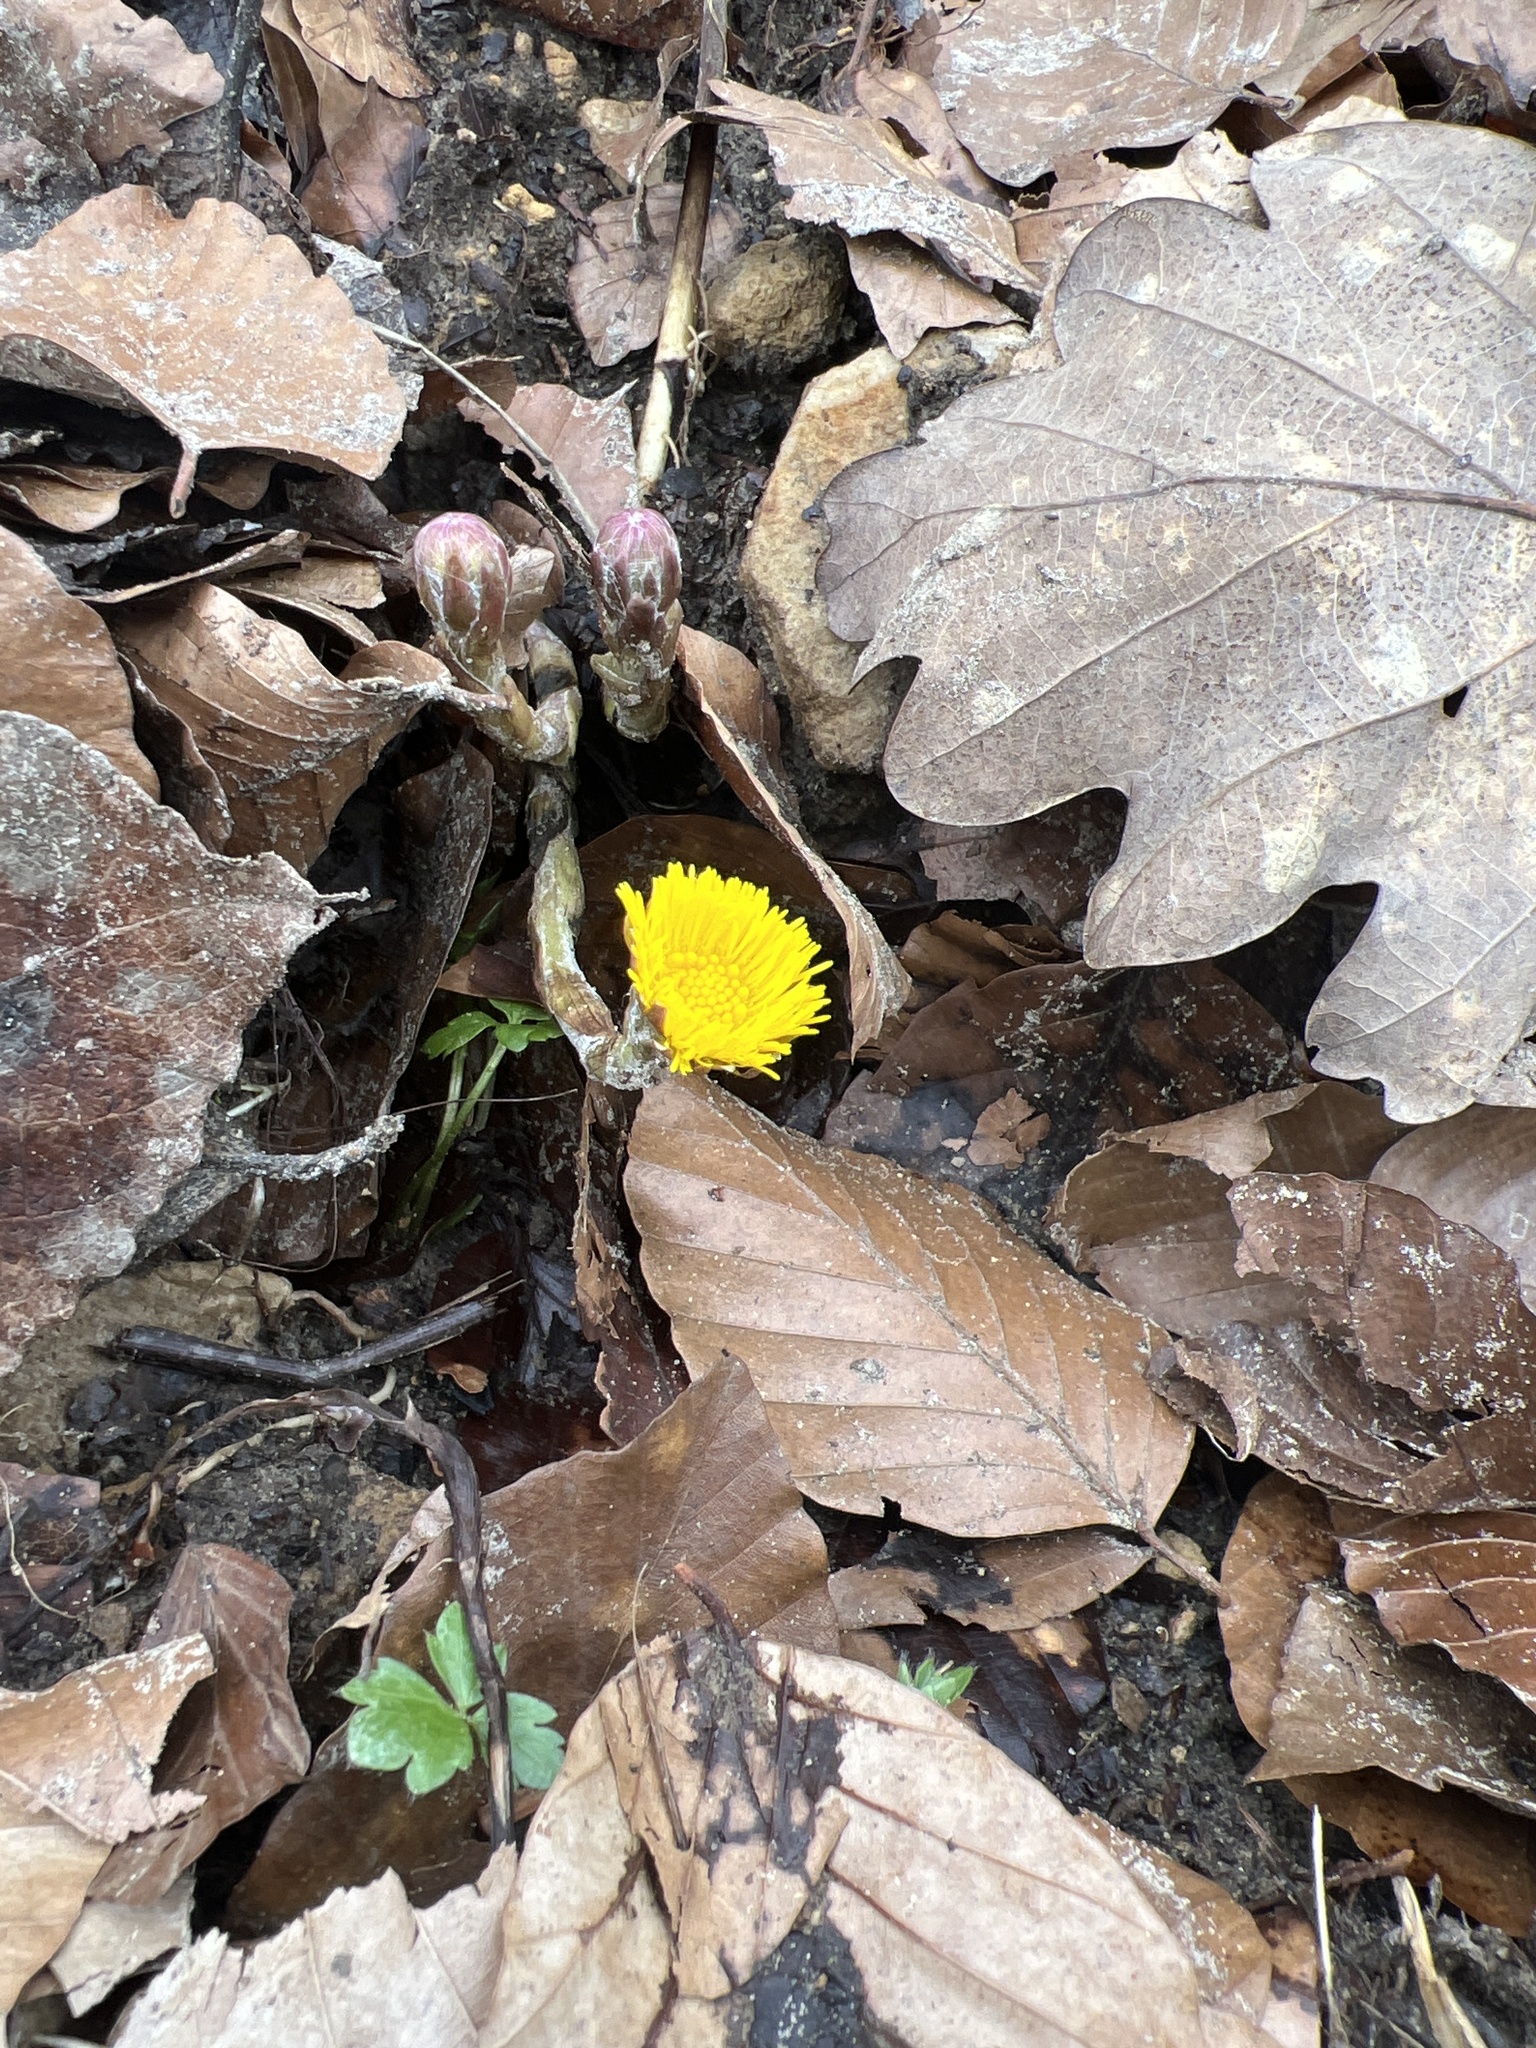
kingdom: Plantae
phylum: Tracheophyta
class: Magnoliopsida
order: Asterales
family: Asteraceae
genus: Tussilago
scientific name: Tussilago farfara
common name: Coltsfoot
